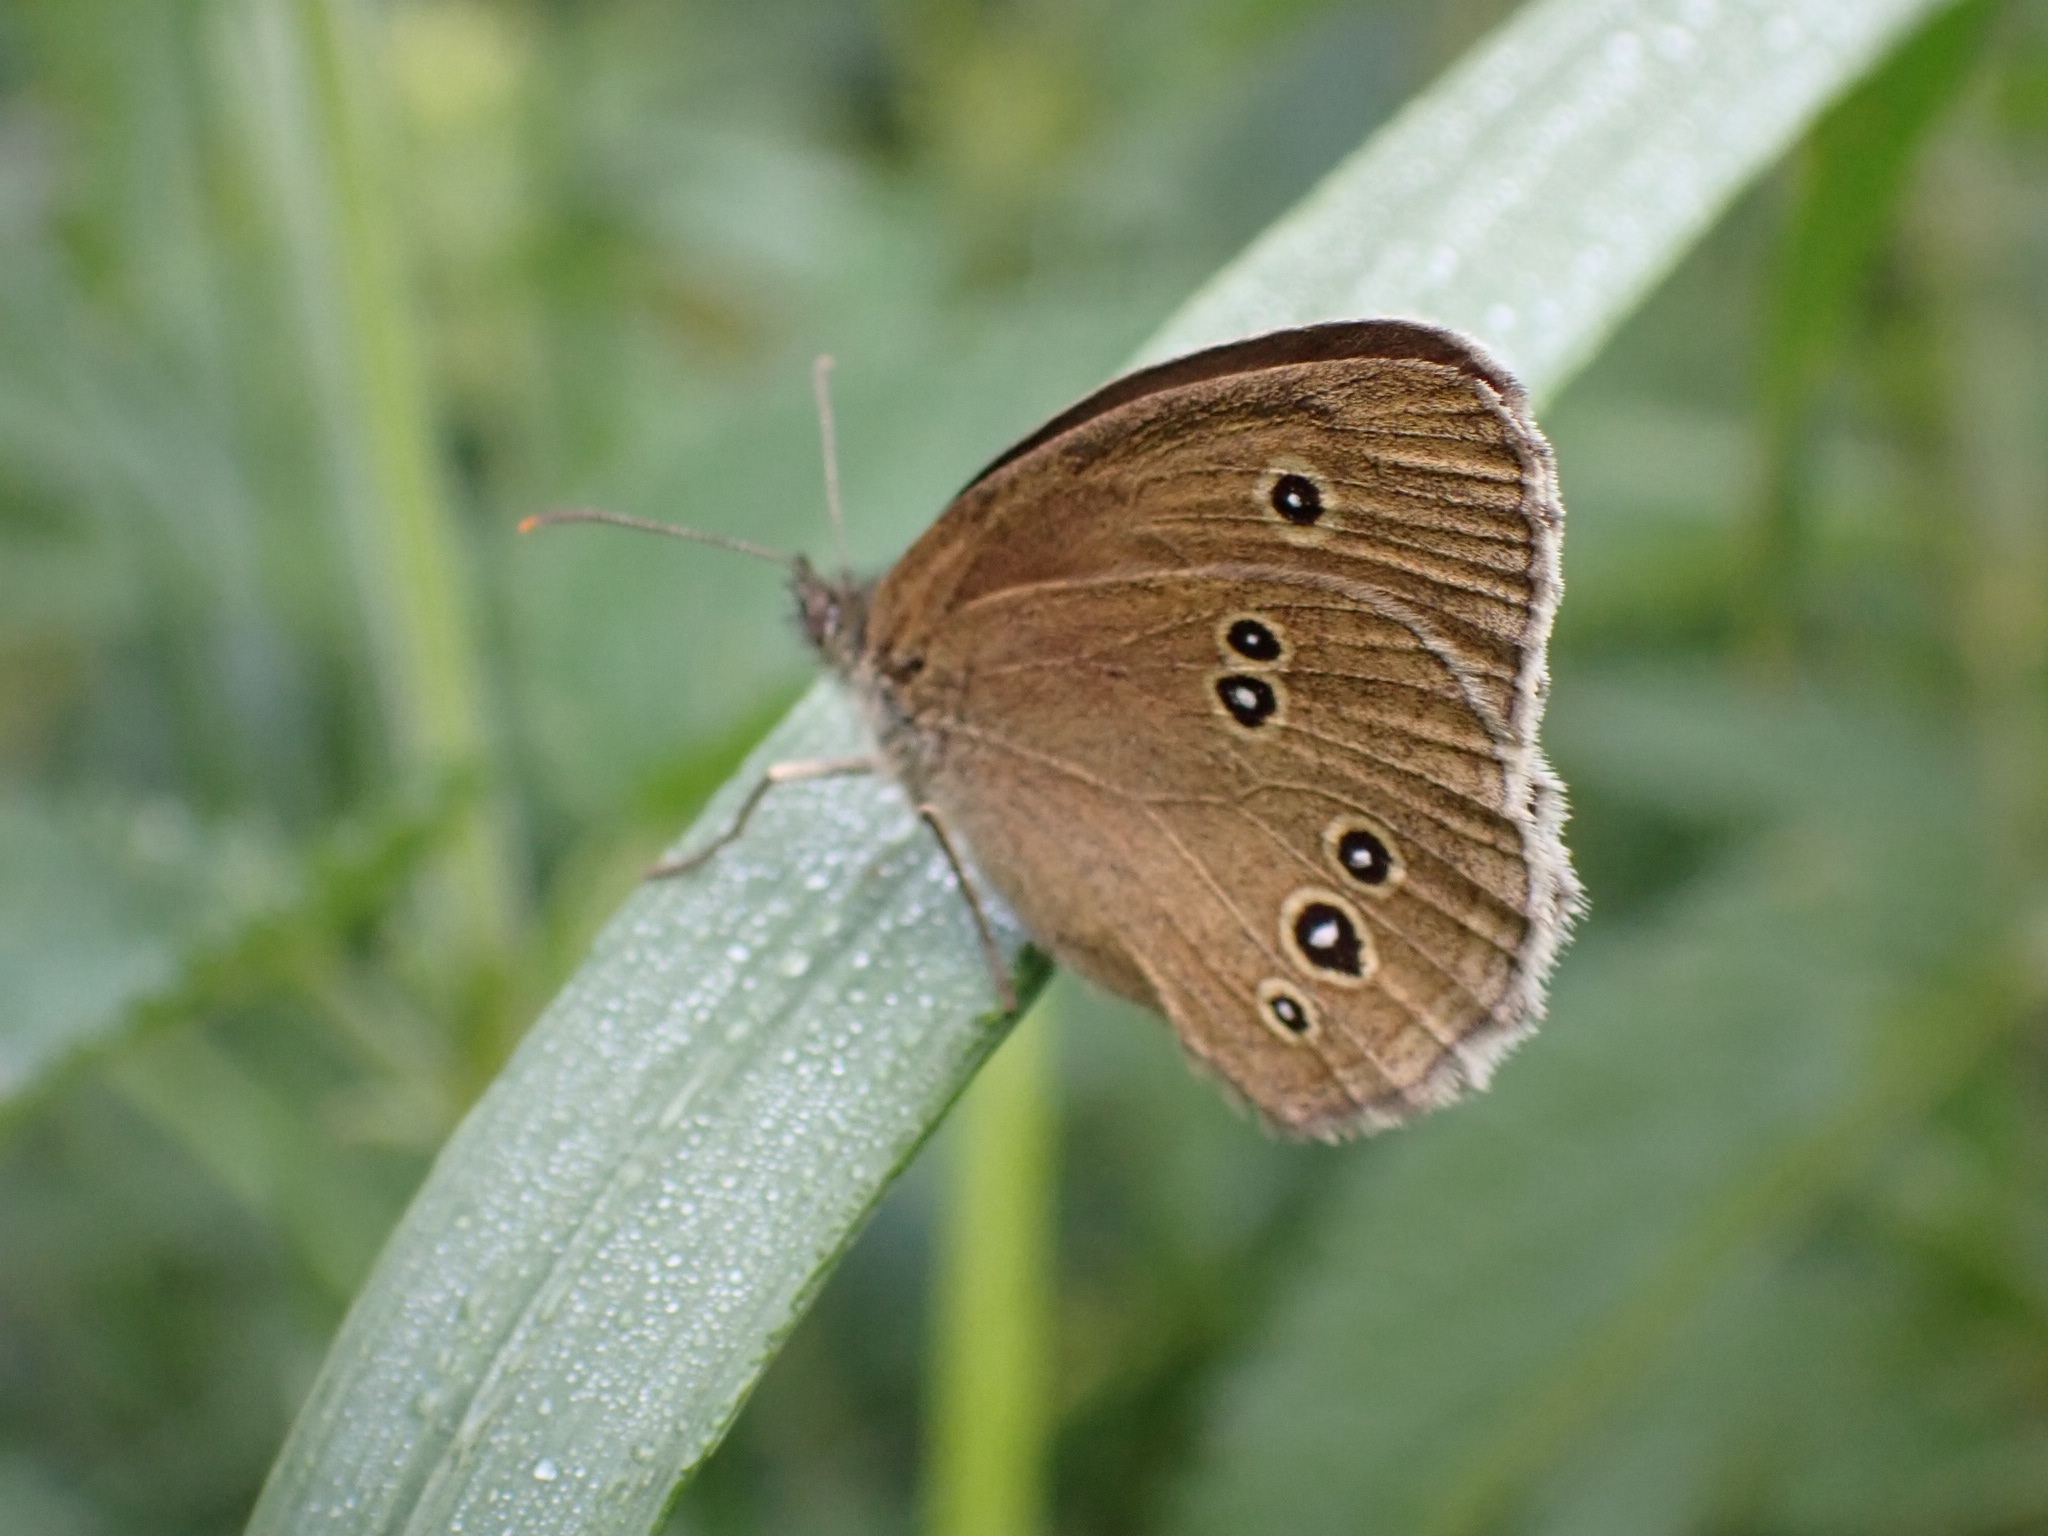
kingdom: Animalia
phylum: Arthropoda
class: Insecta
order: Lepidoptera
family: Nymphalidae
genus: Aphantopus
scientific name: Aphantopus hyperantus
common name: Ringlet
